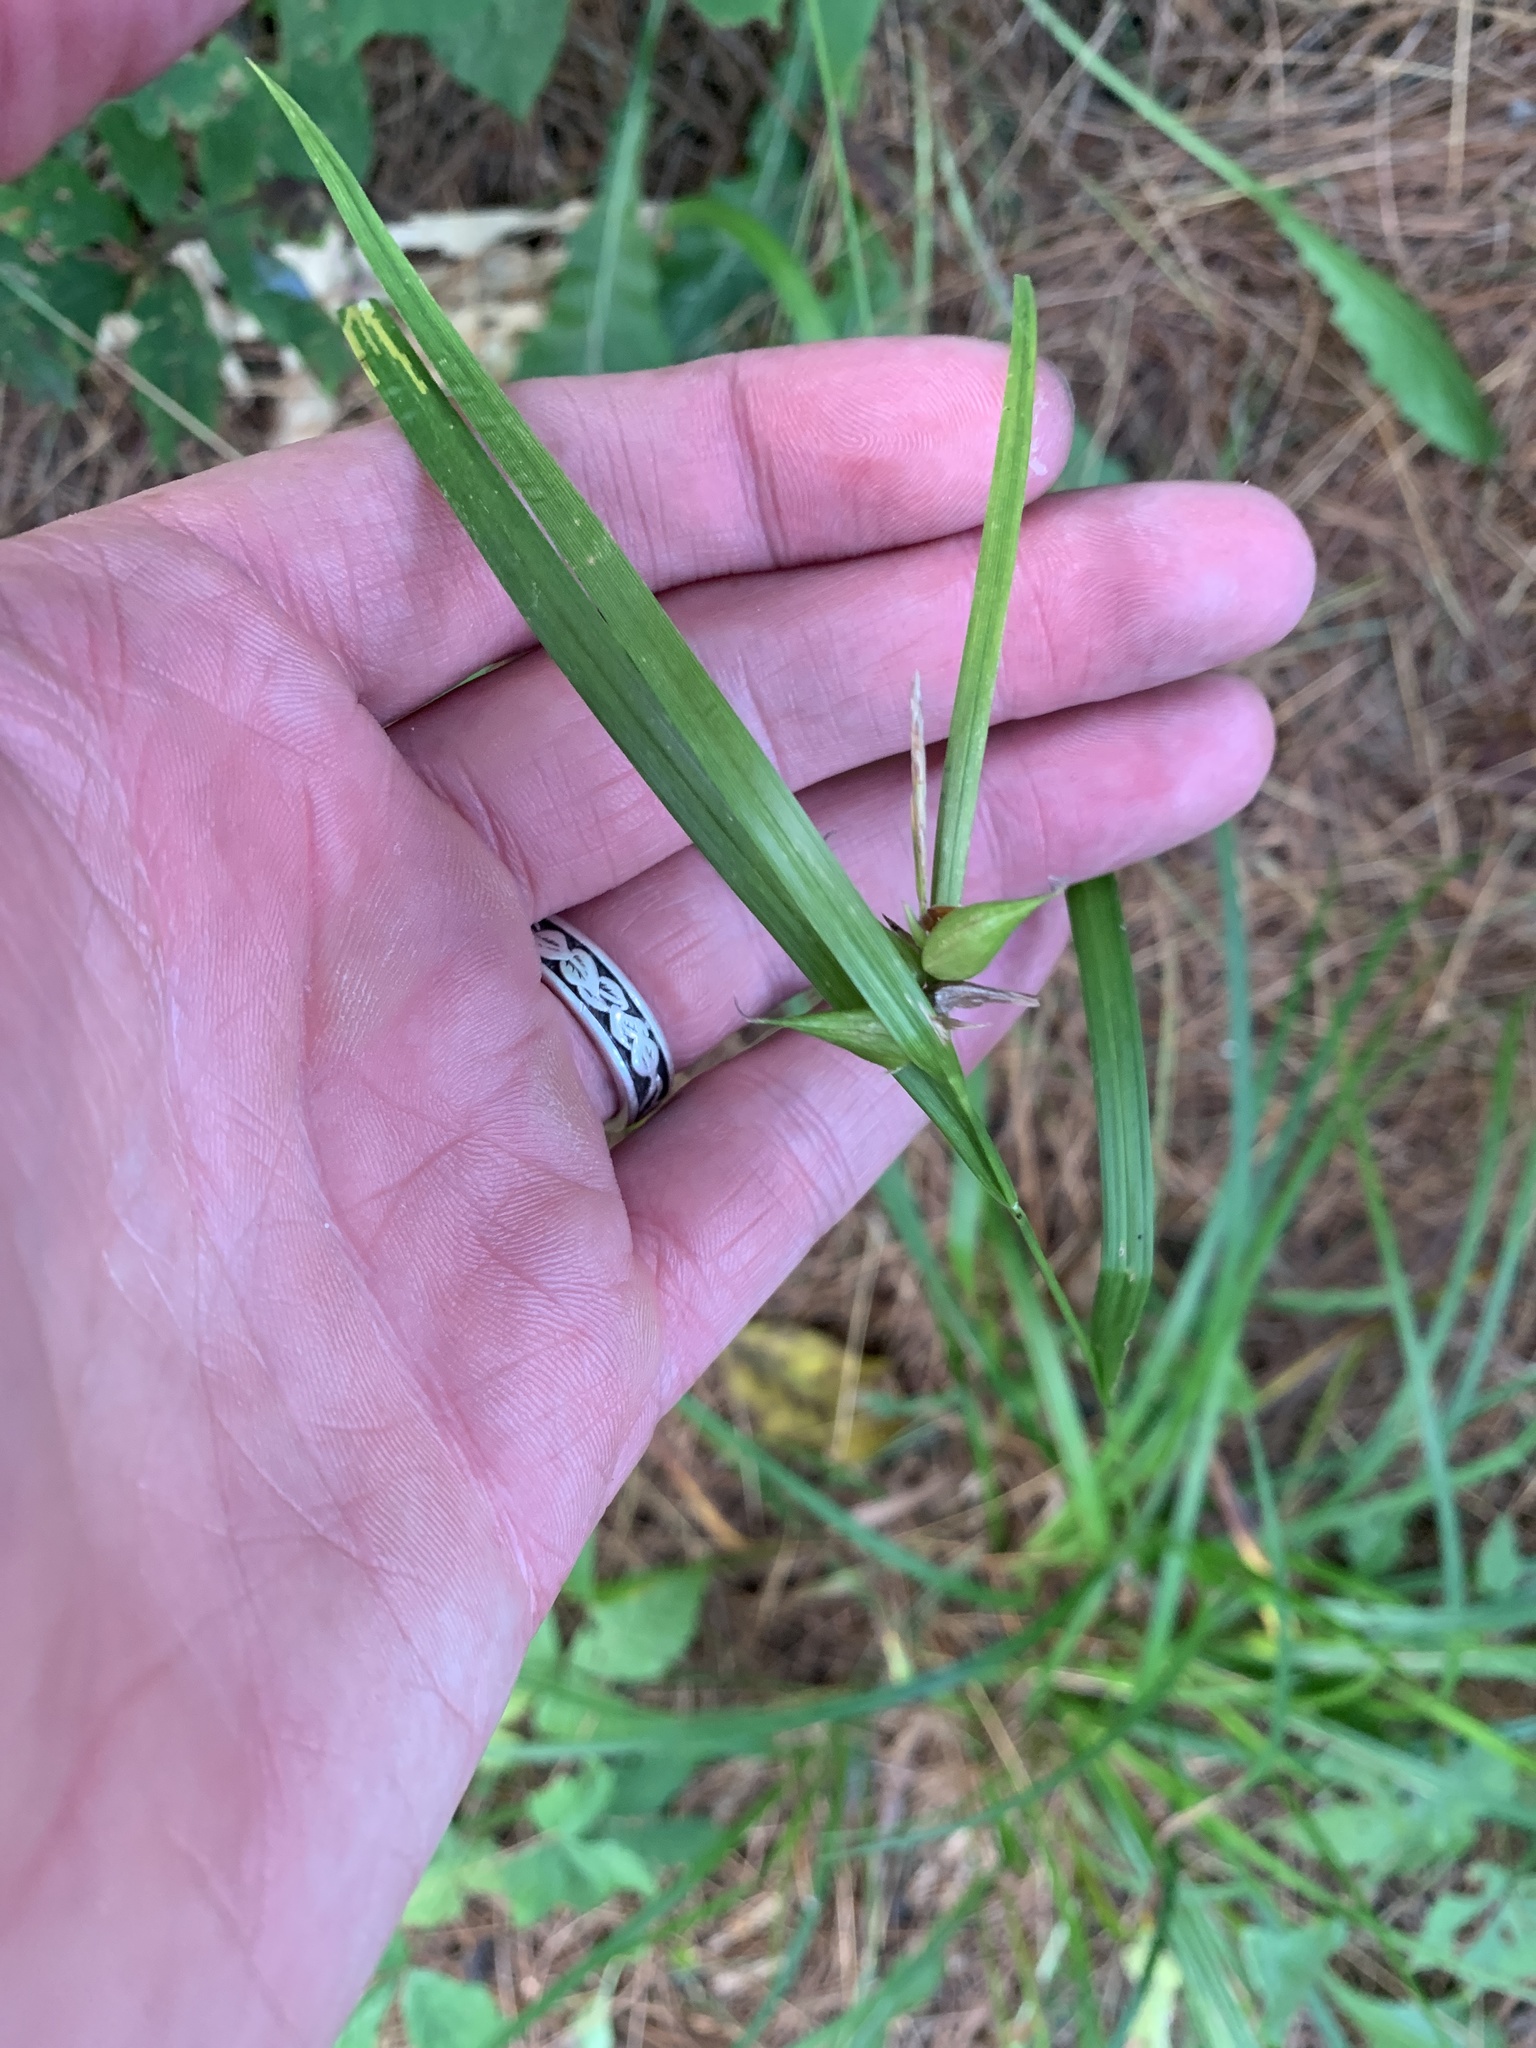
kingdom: Plantae
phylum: Tracheophyta
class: Liliopsida
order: Poales
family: Cyperaceae
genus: Carex
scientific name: Carex intumescens
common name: Greater bladder sedge
